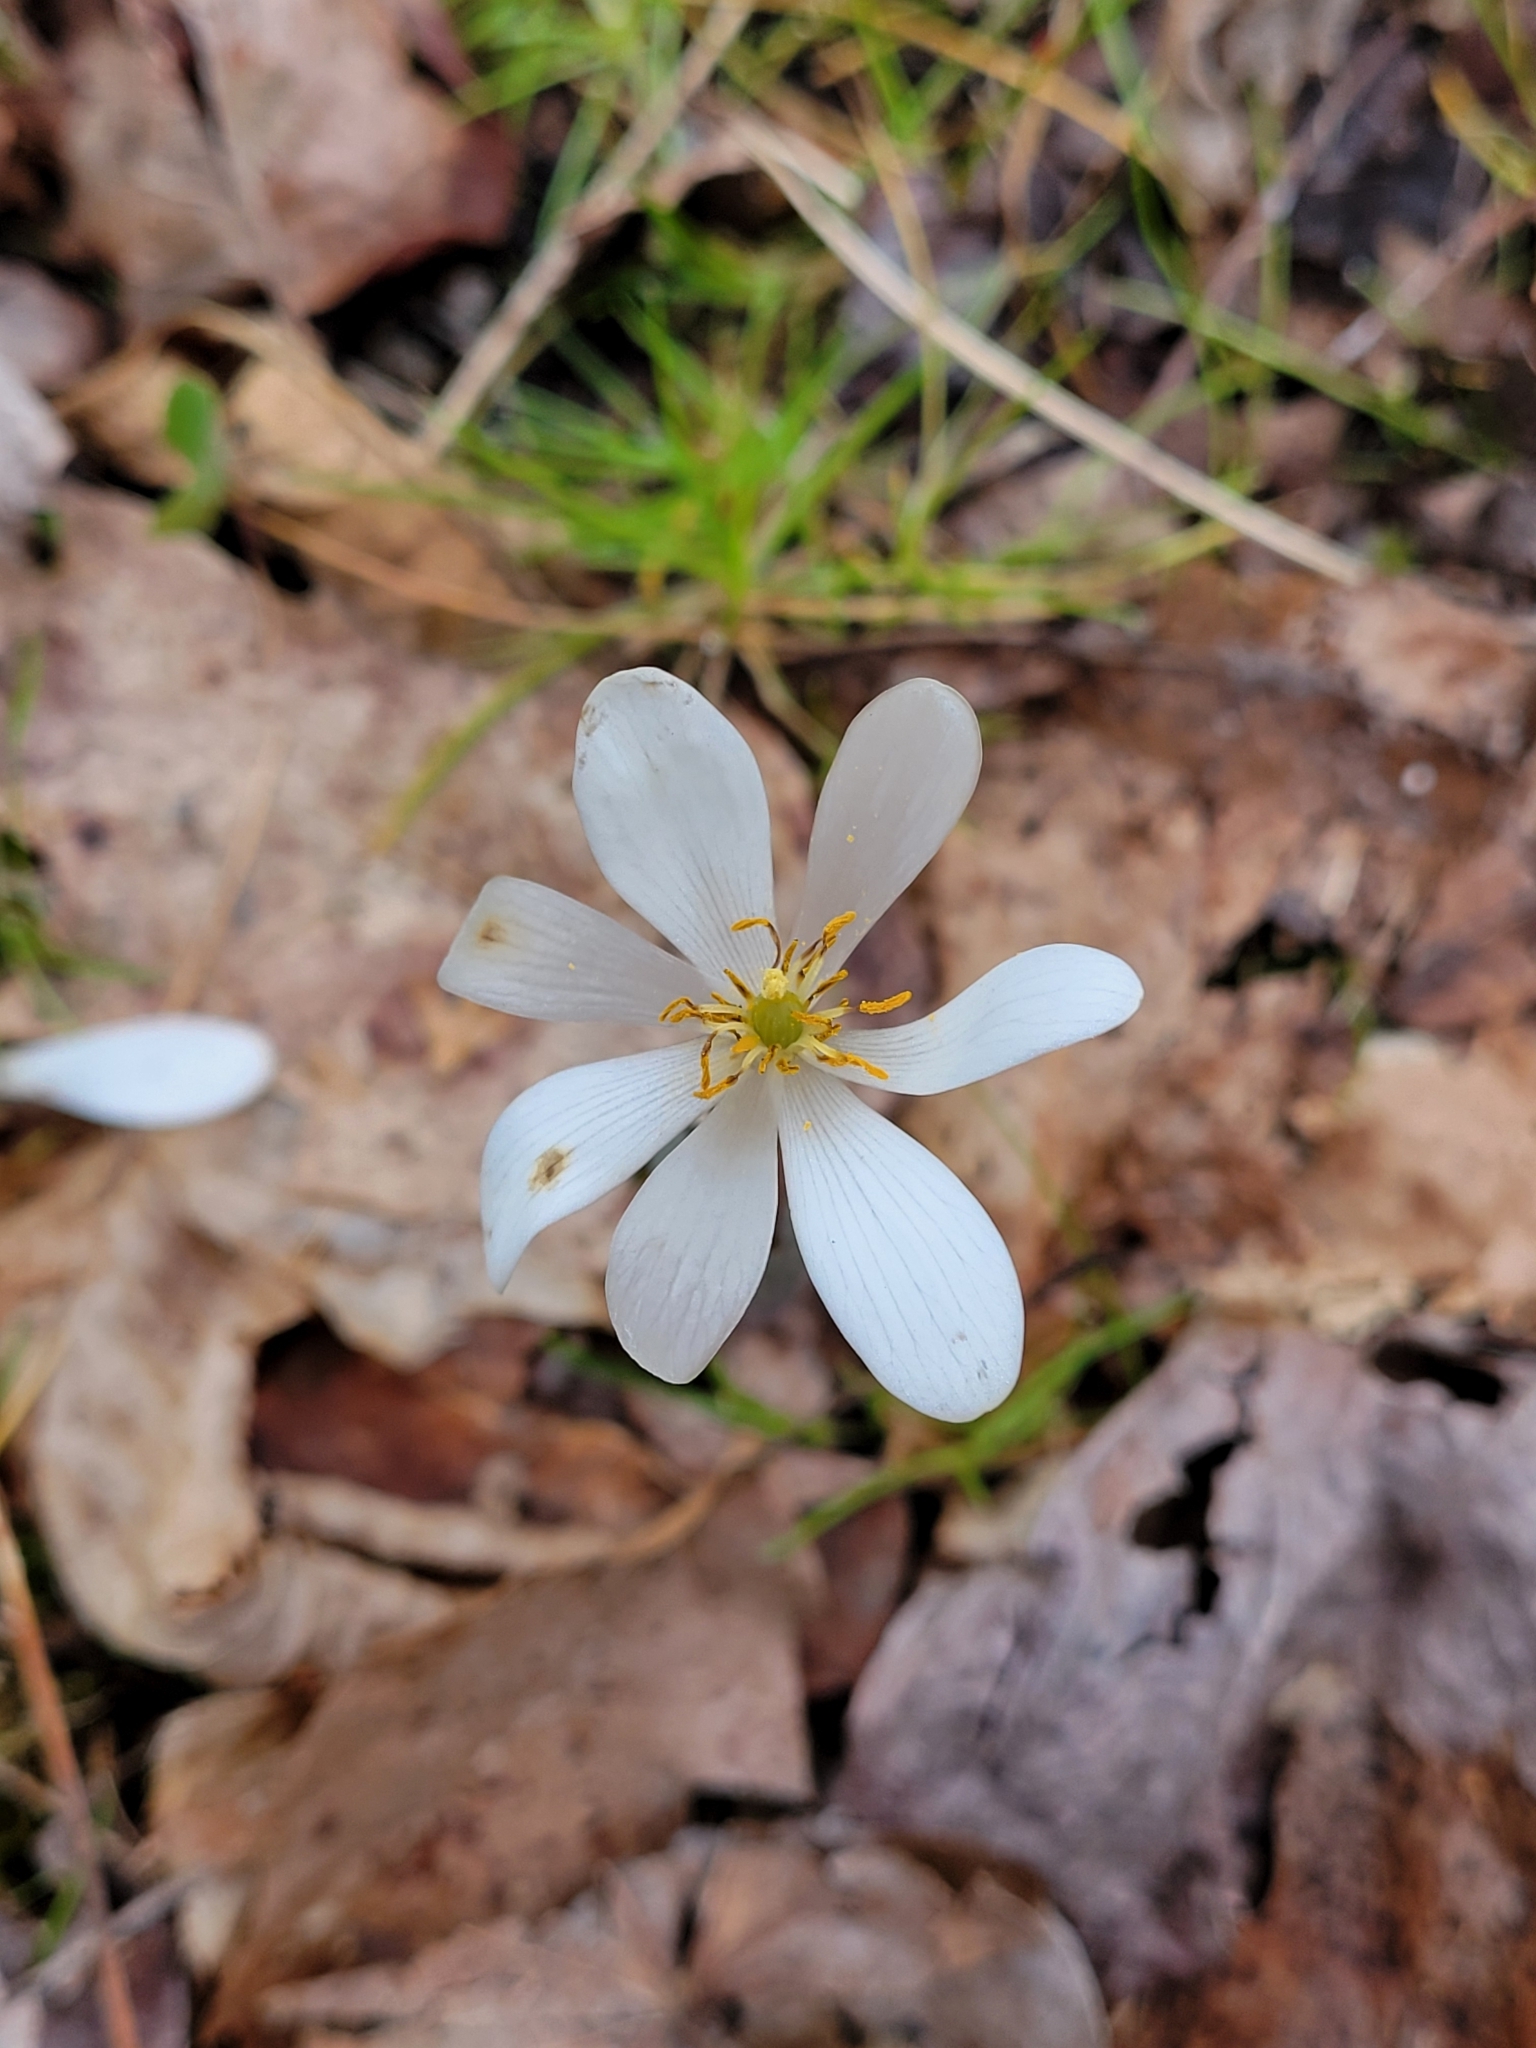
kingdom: Plantae
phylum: Tracheophyta
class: Magnoliopsida
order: Ranunculales
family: Papaveraceae
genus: Sanguinaria
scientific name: Sanguinaria canadensis
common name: Bloodroot
